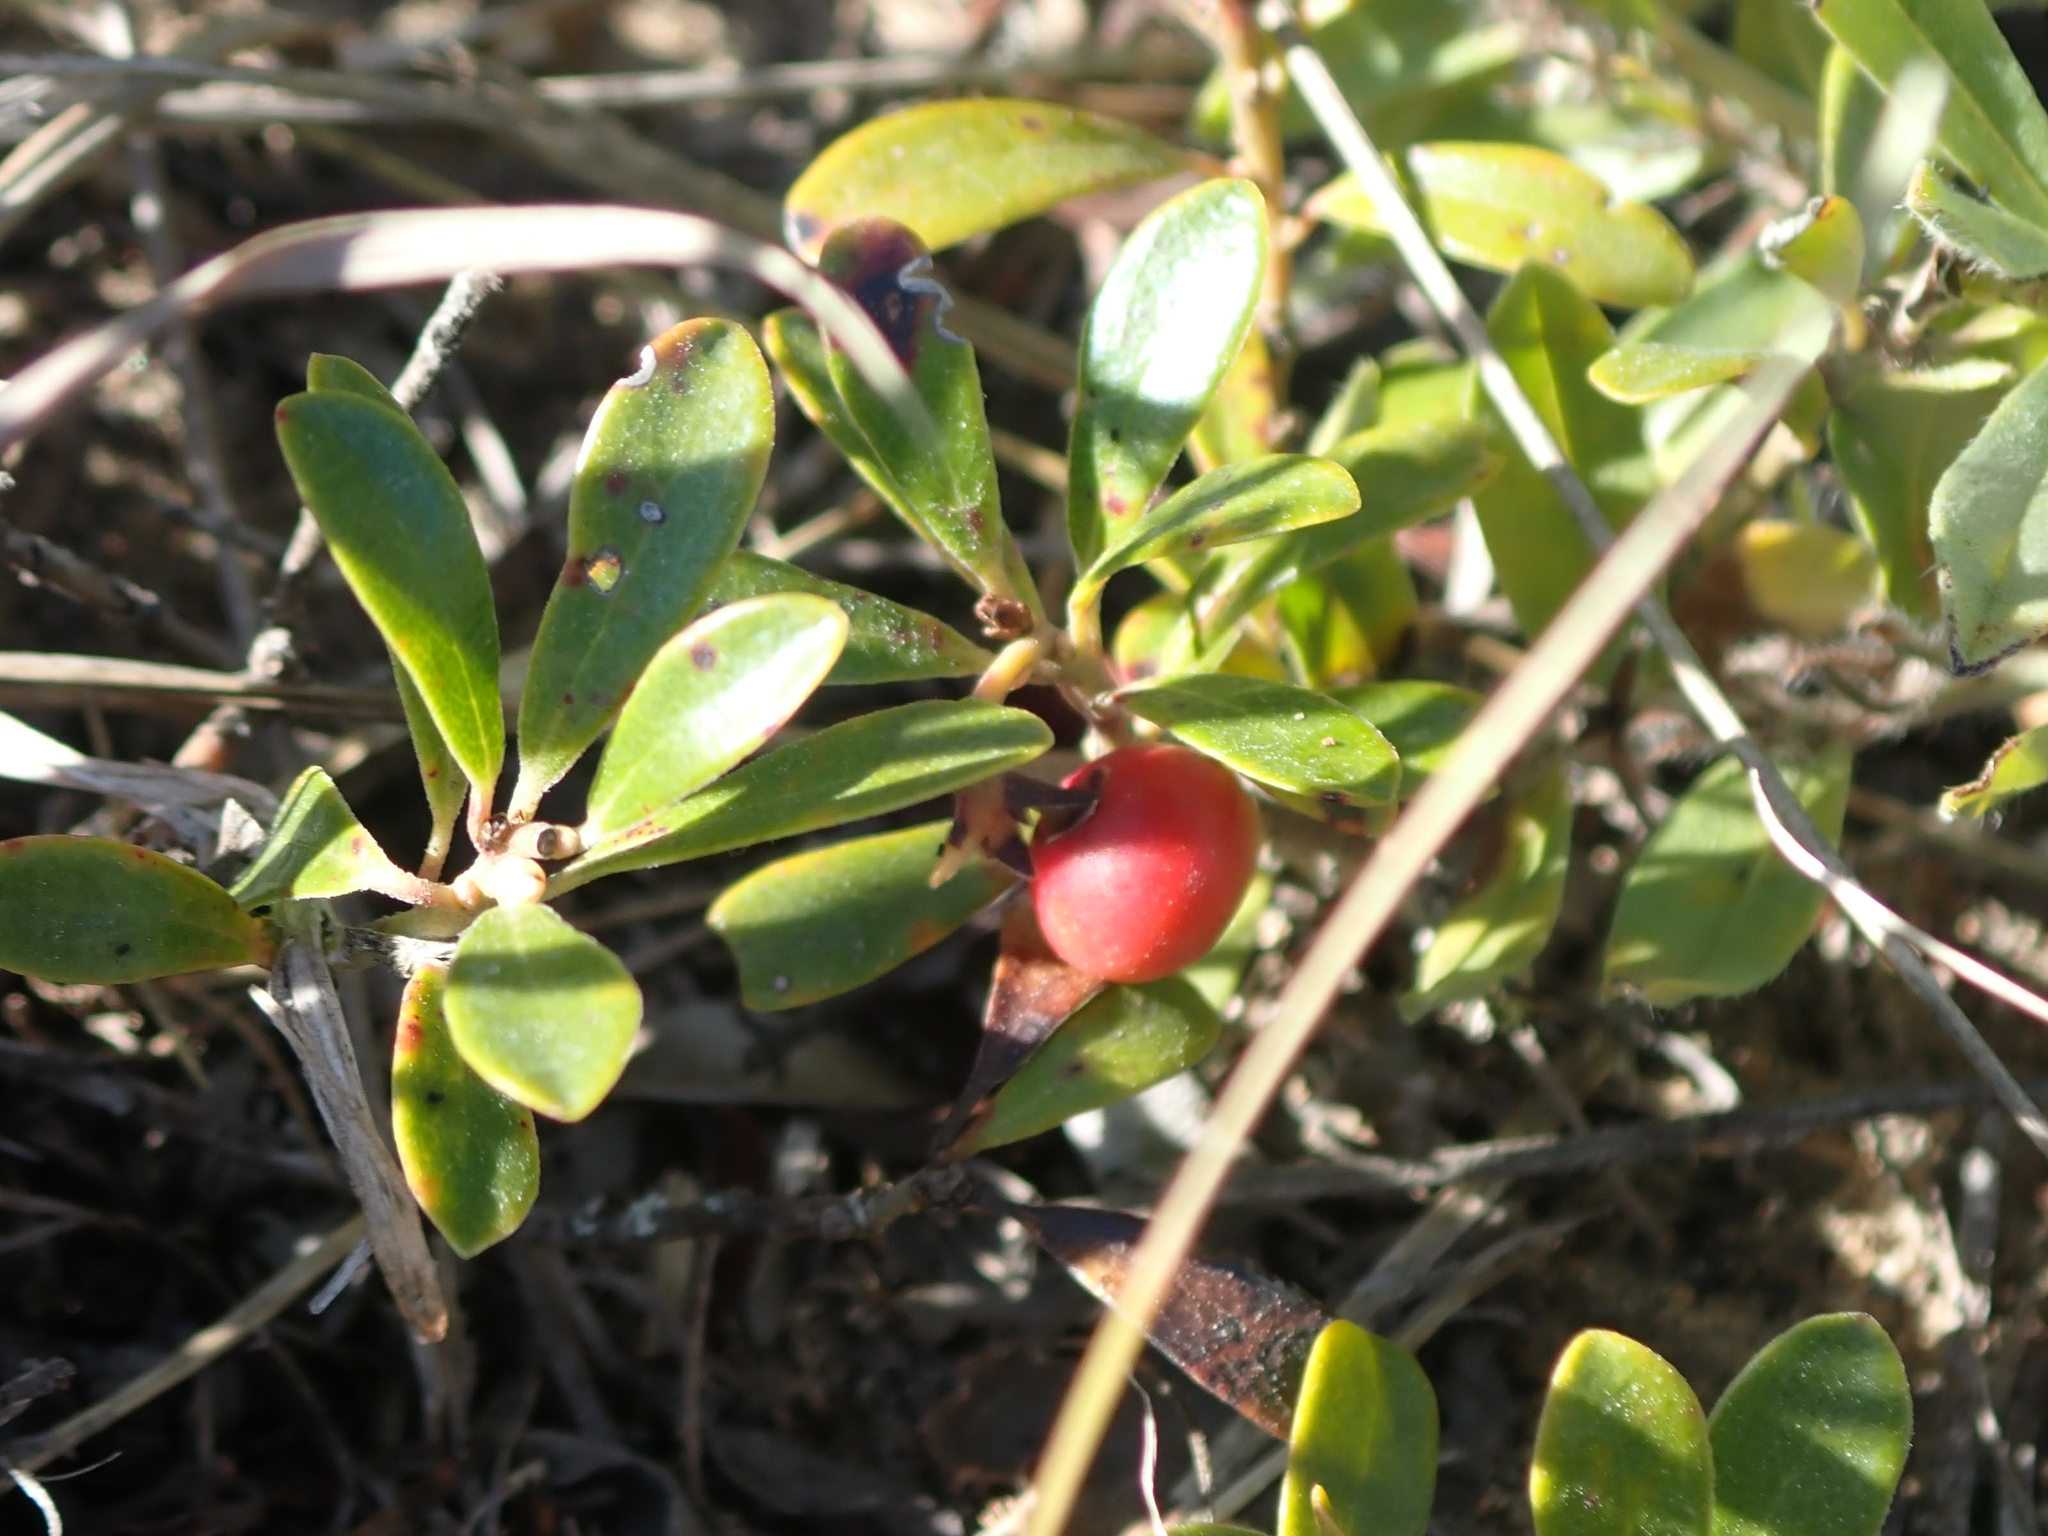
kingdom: Plantae
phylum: Tracheophyta
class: Magnoliopsida
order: Ericales
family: Ericaceae
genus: Arctostaphylos
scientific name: Arctostaphylos uva-ursi
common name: Bearberry
